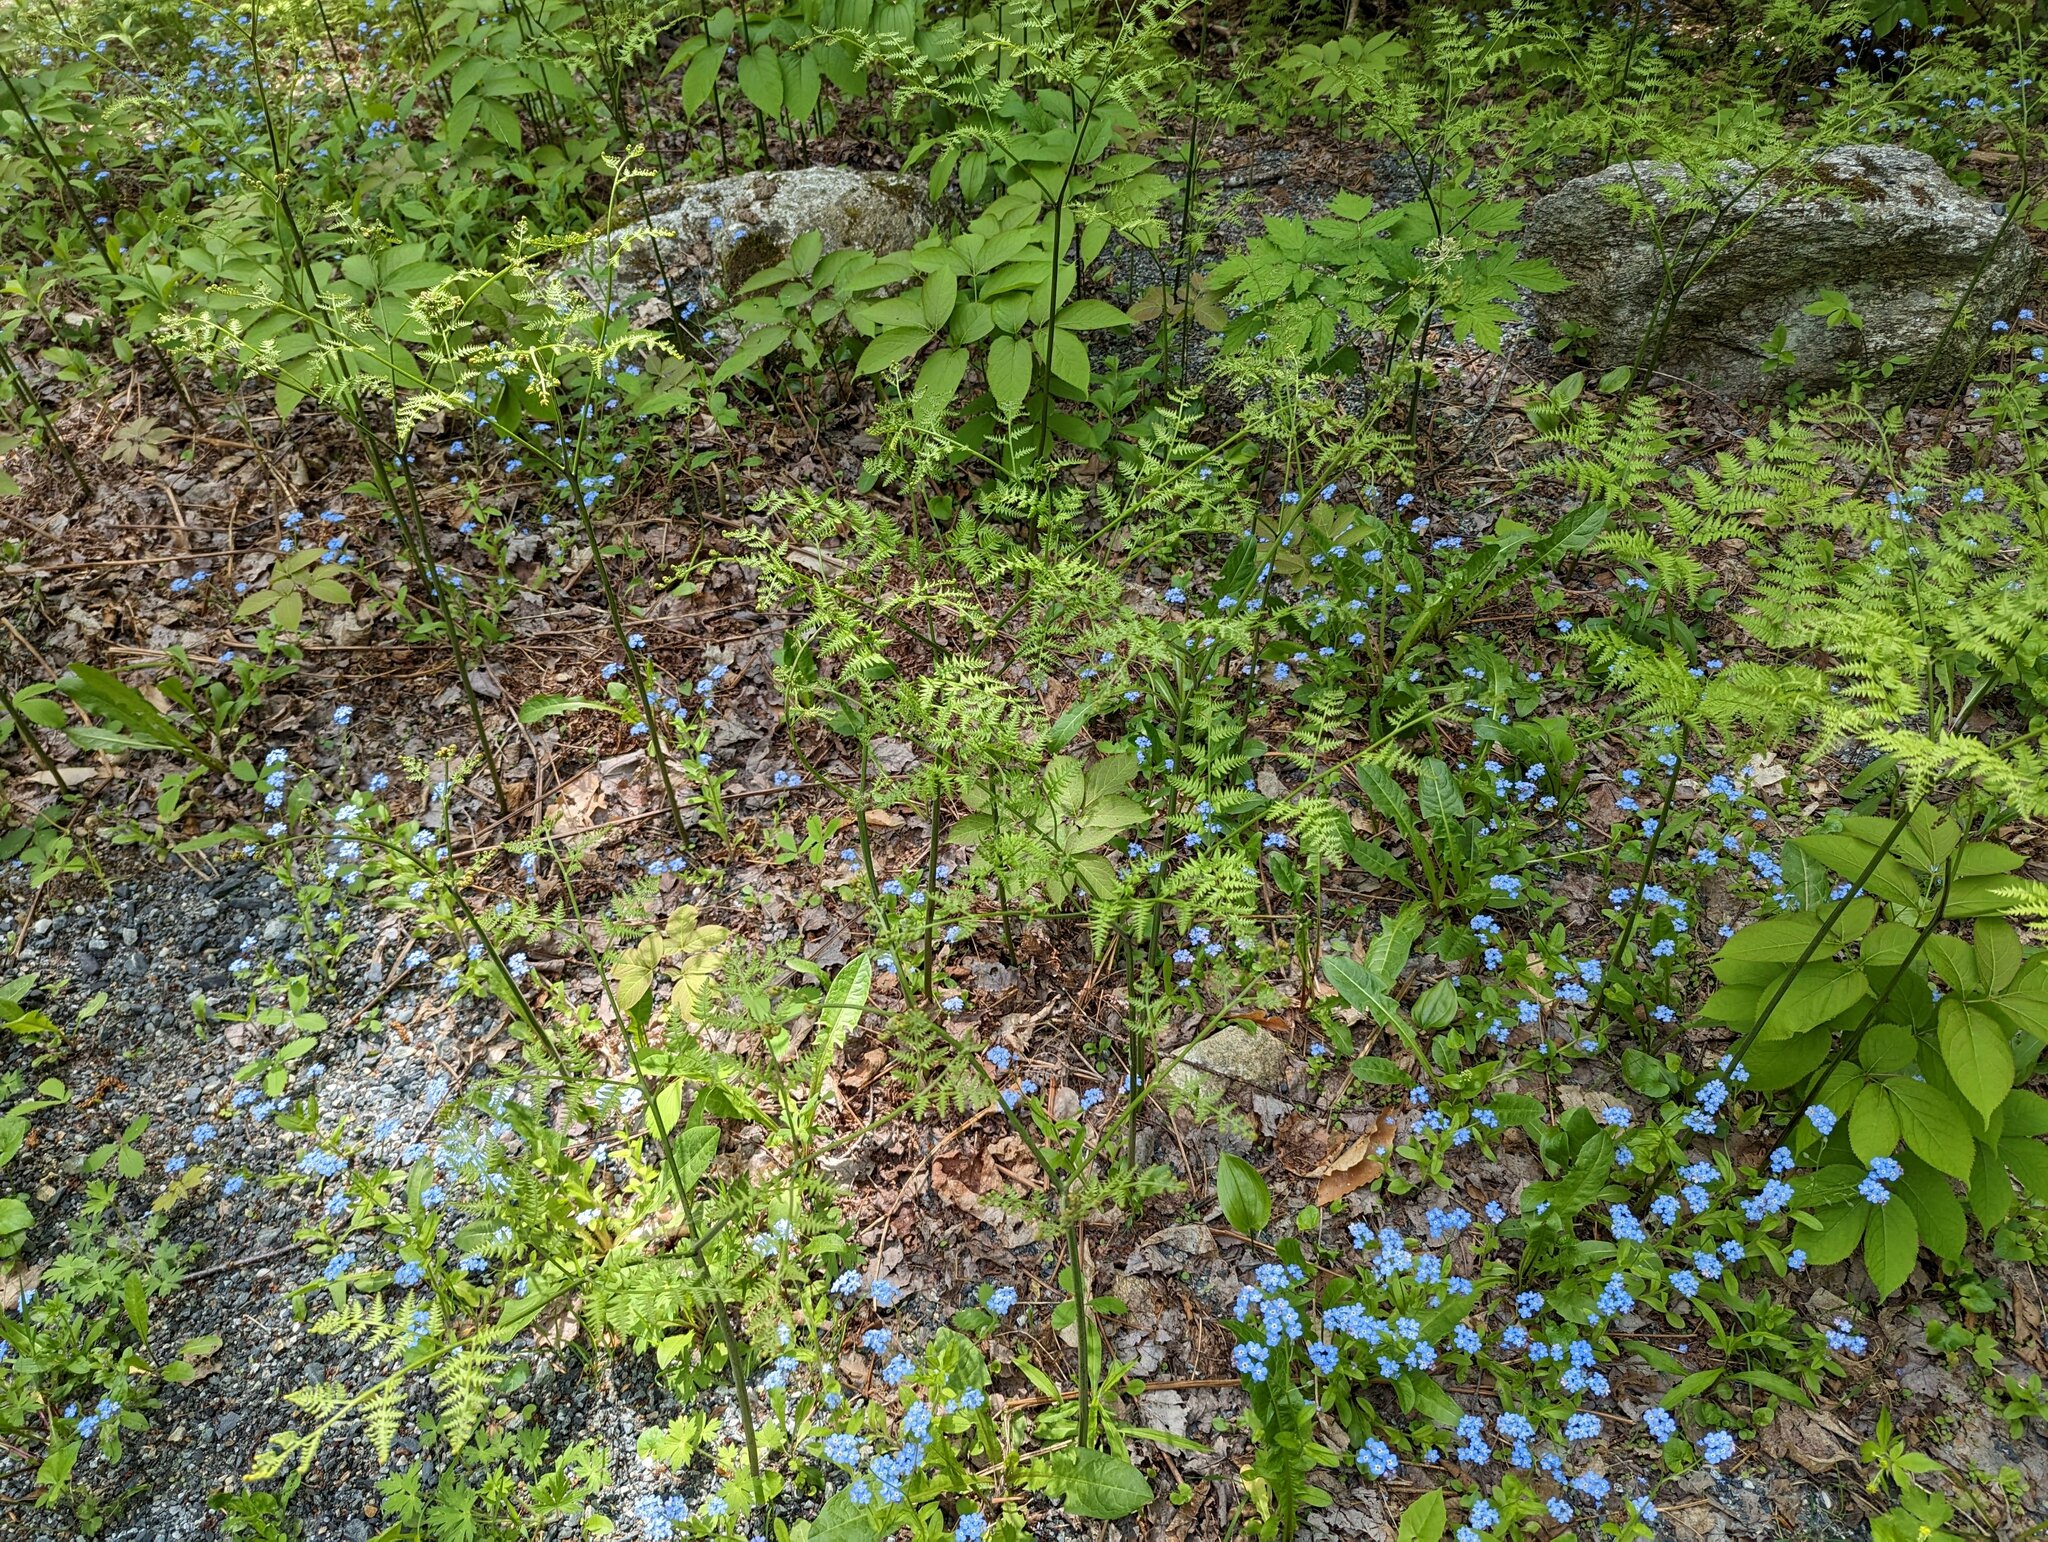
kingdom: Plantae
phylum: Tracheophyta
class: Polypodiopsida
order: Polypodiales
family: Dennstaedtiaceae
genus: Pteridium
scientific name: Pteridium aquilinum
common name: Bracken
